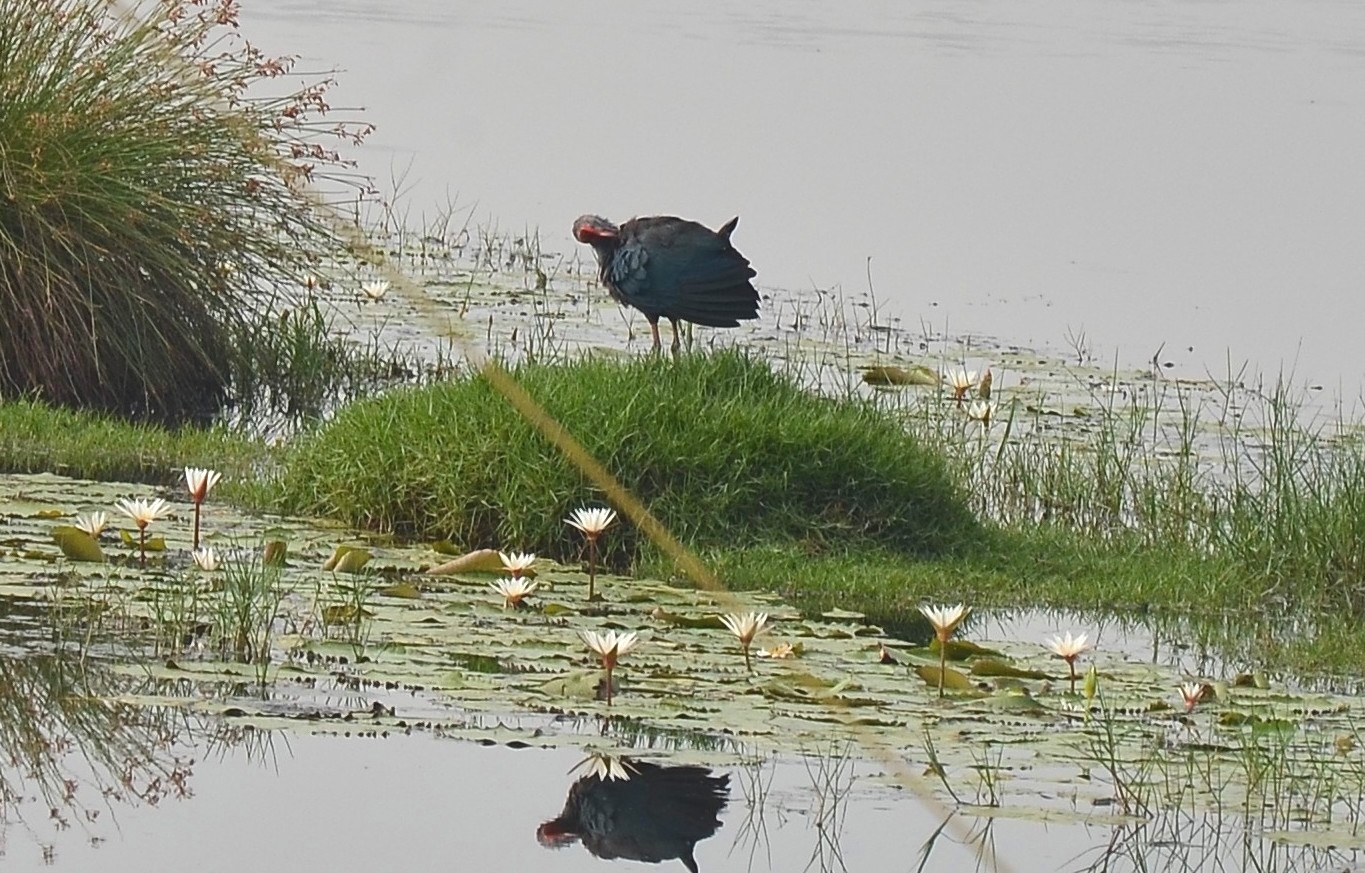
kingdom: Animalia
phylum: Chordata
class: Aves
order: Gruiformes
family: Rallidae
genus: Porphyrio
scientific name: Porphyrio porphyrio
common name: Purple swamphen
